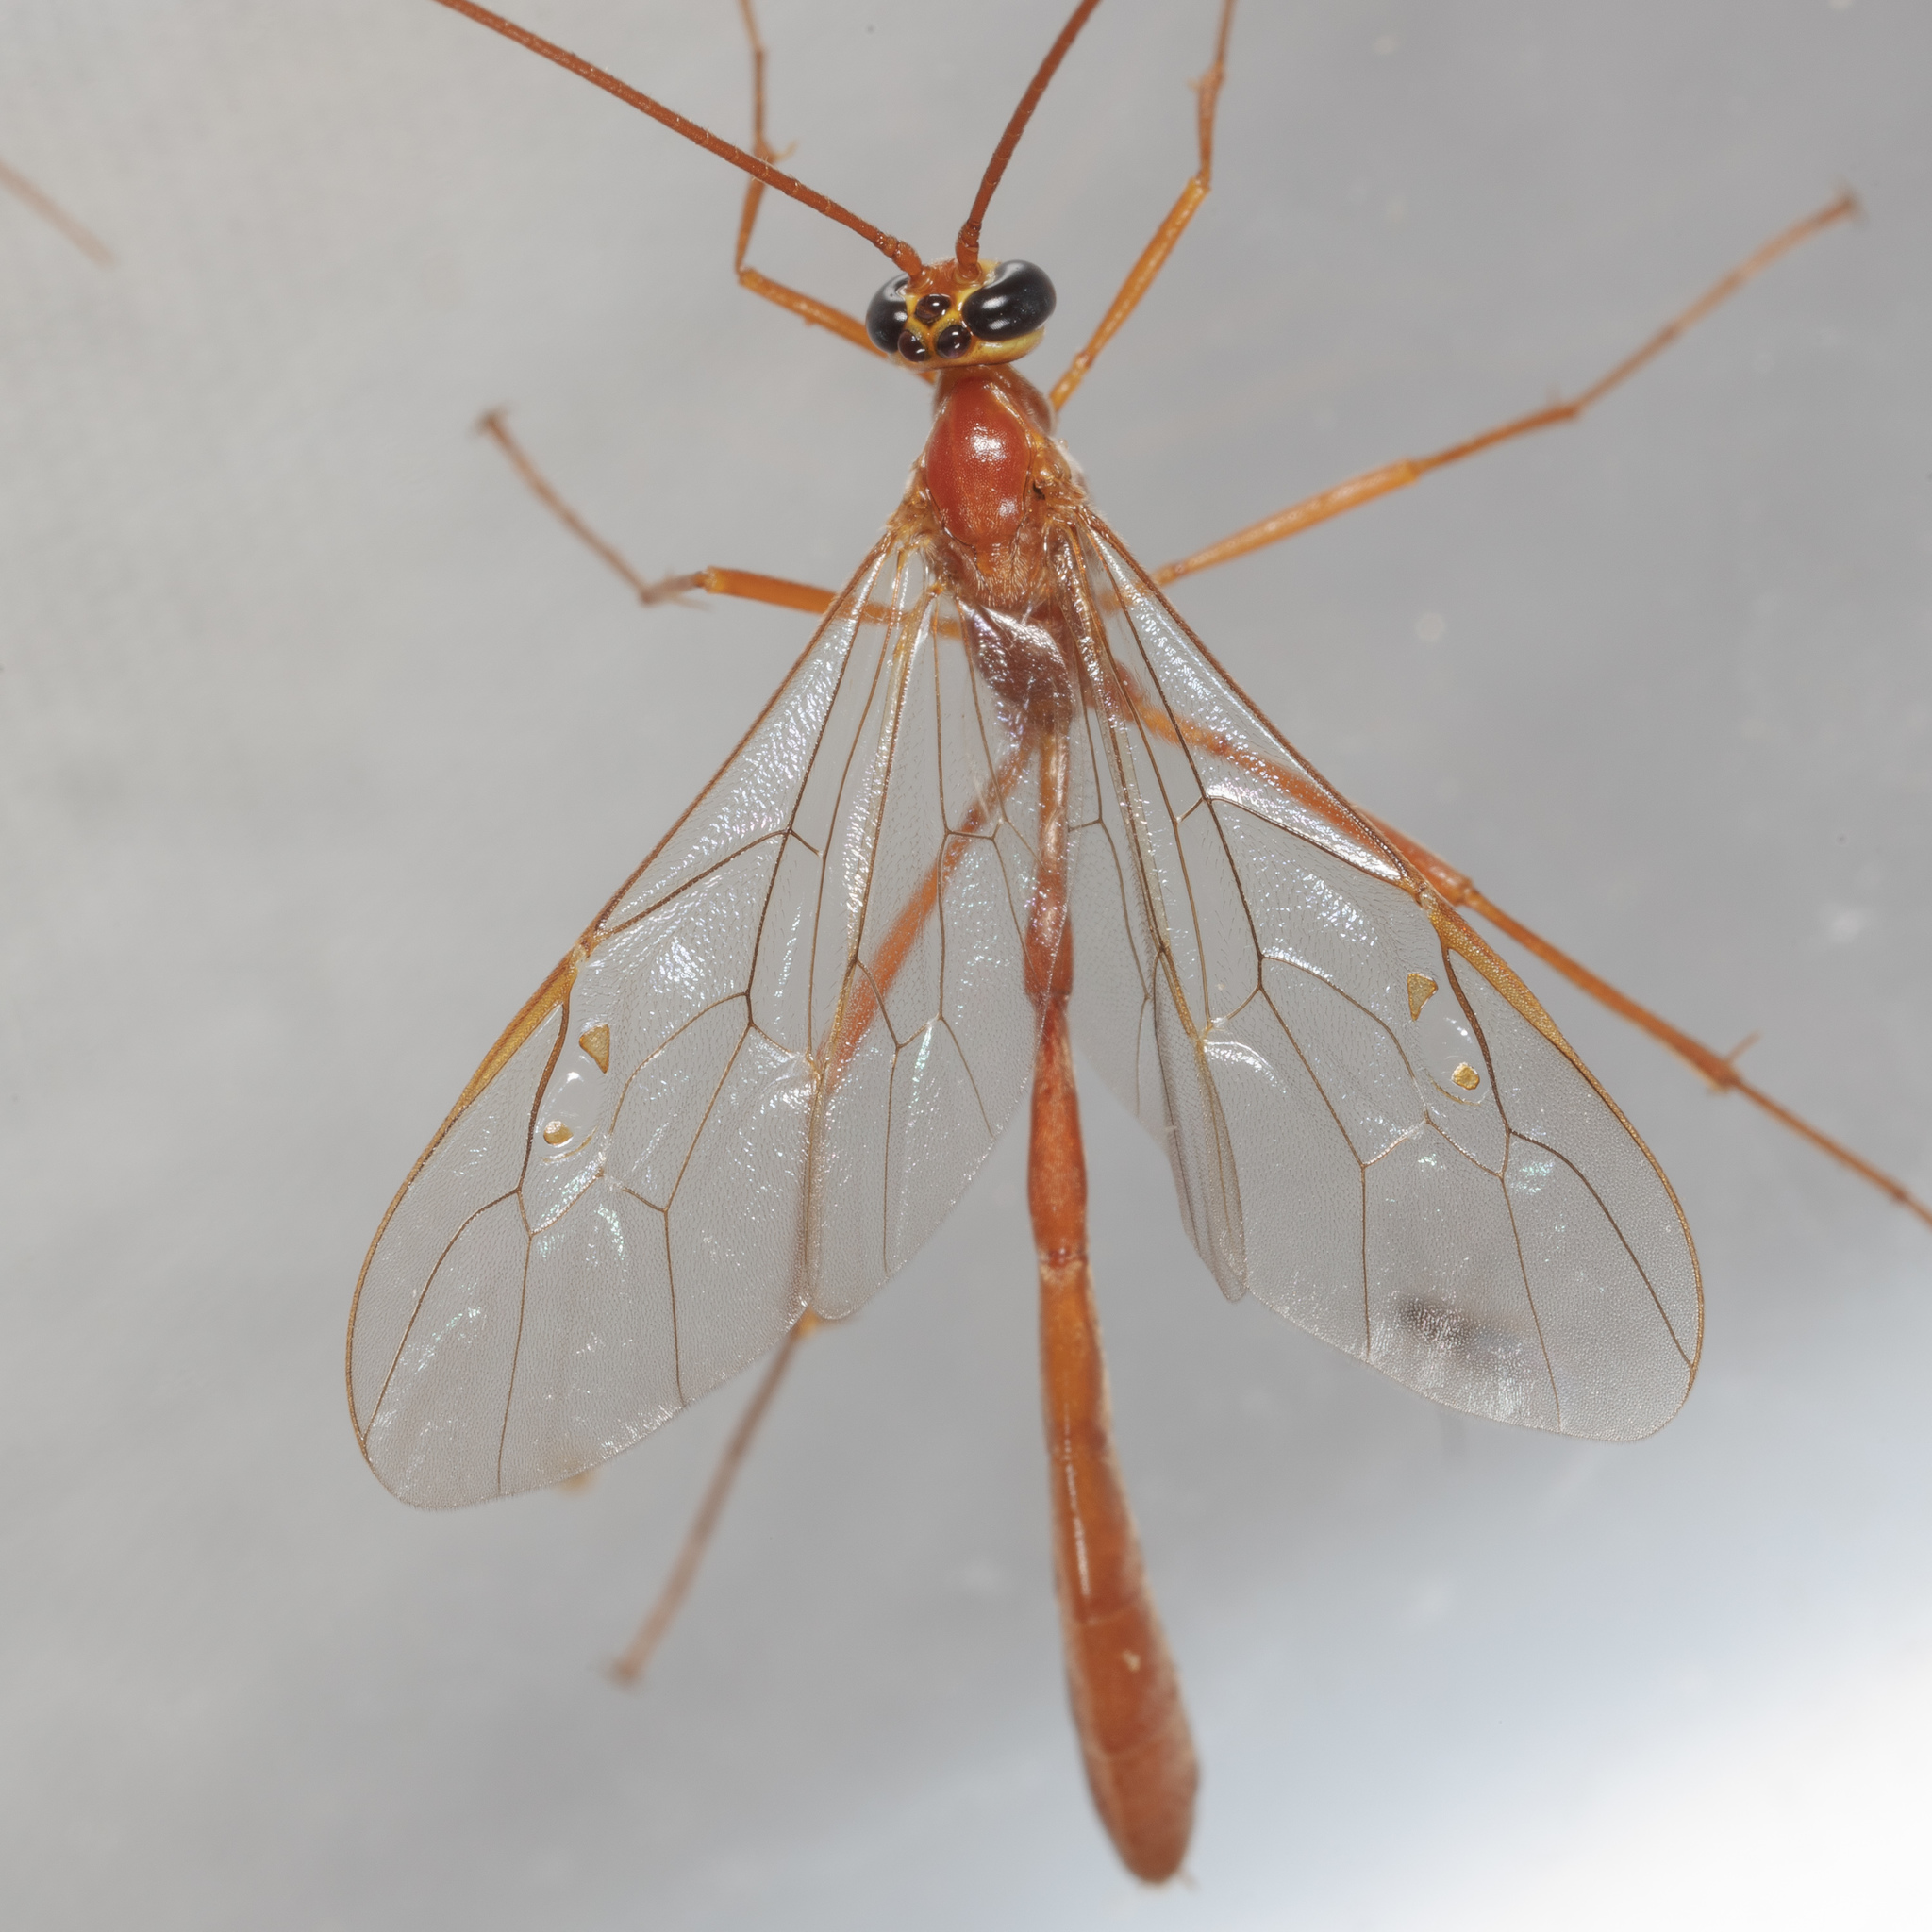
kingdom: Animalia
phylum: Arthropoda
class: Insecta
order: Hymenoptera
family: Ichneumonidae
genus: Enicospilus
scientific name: Enicospilus purgatus
